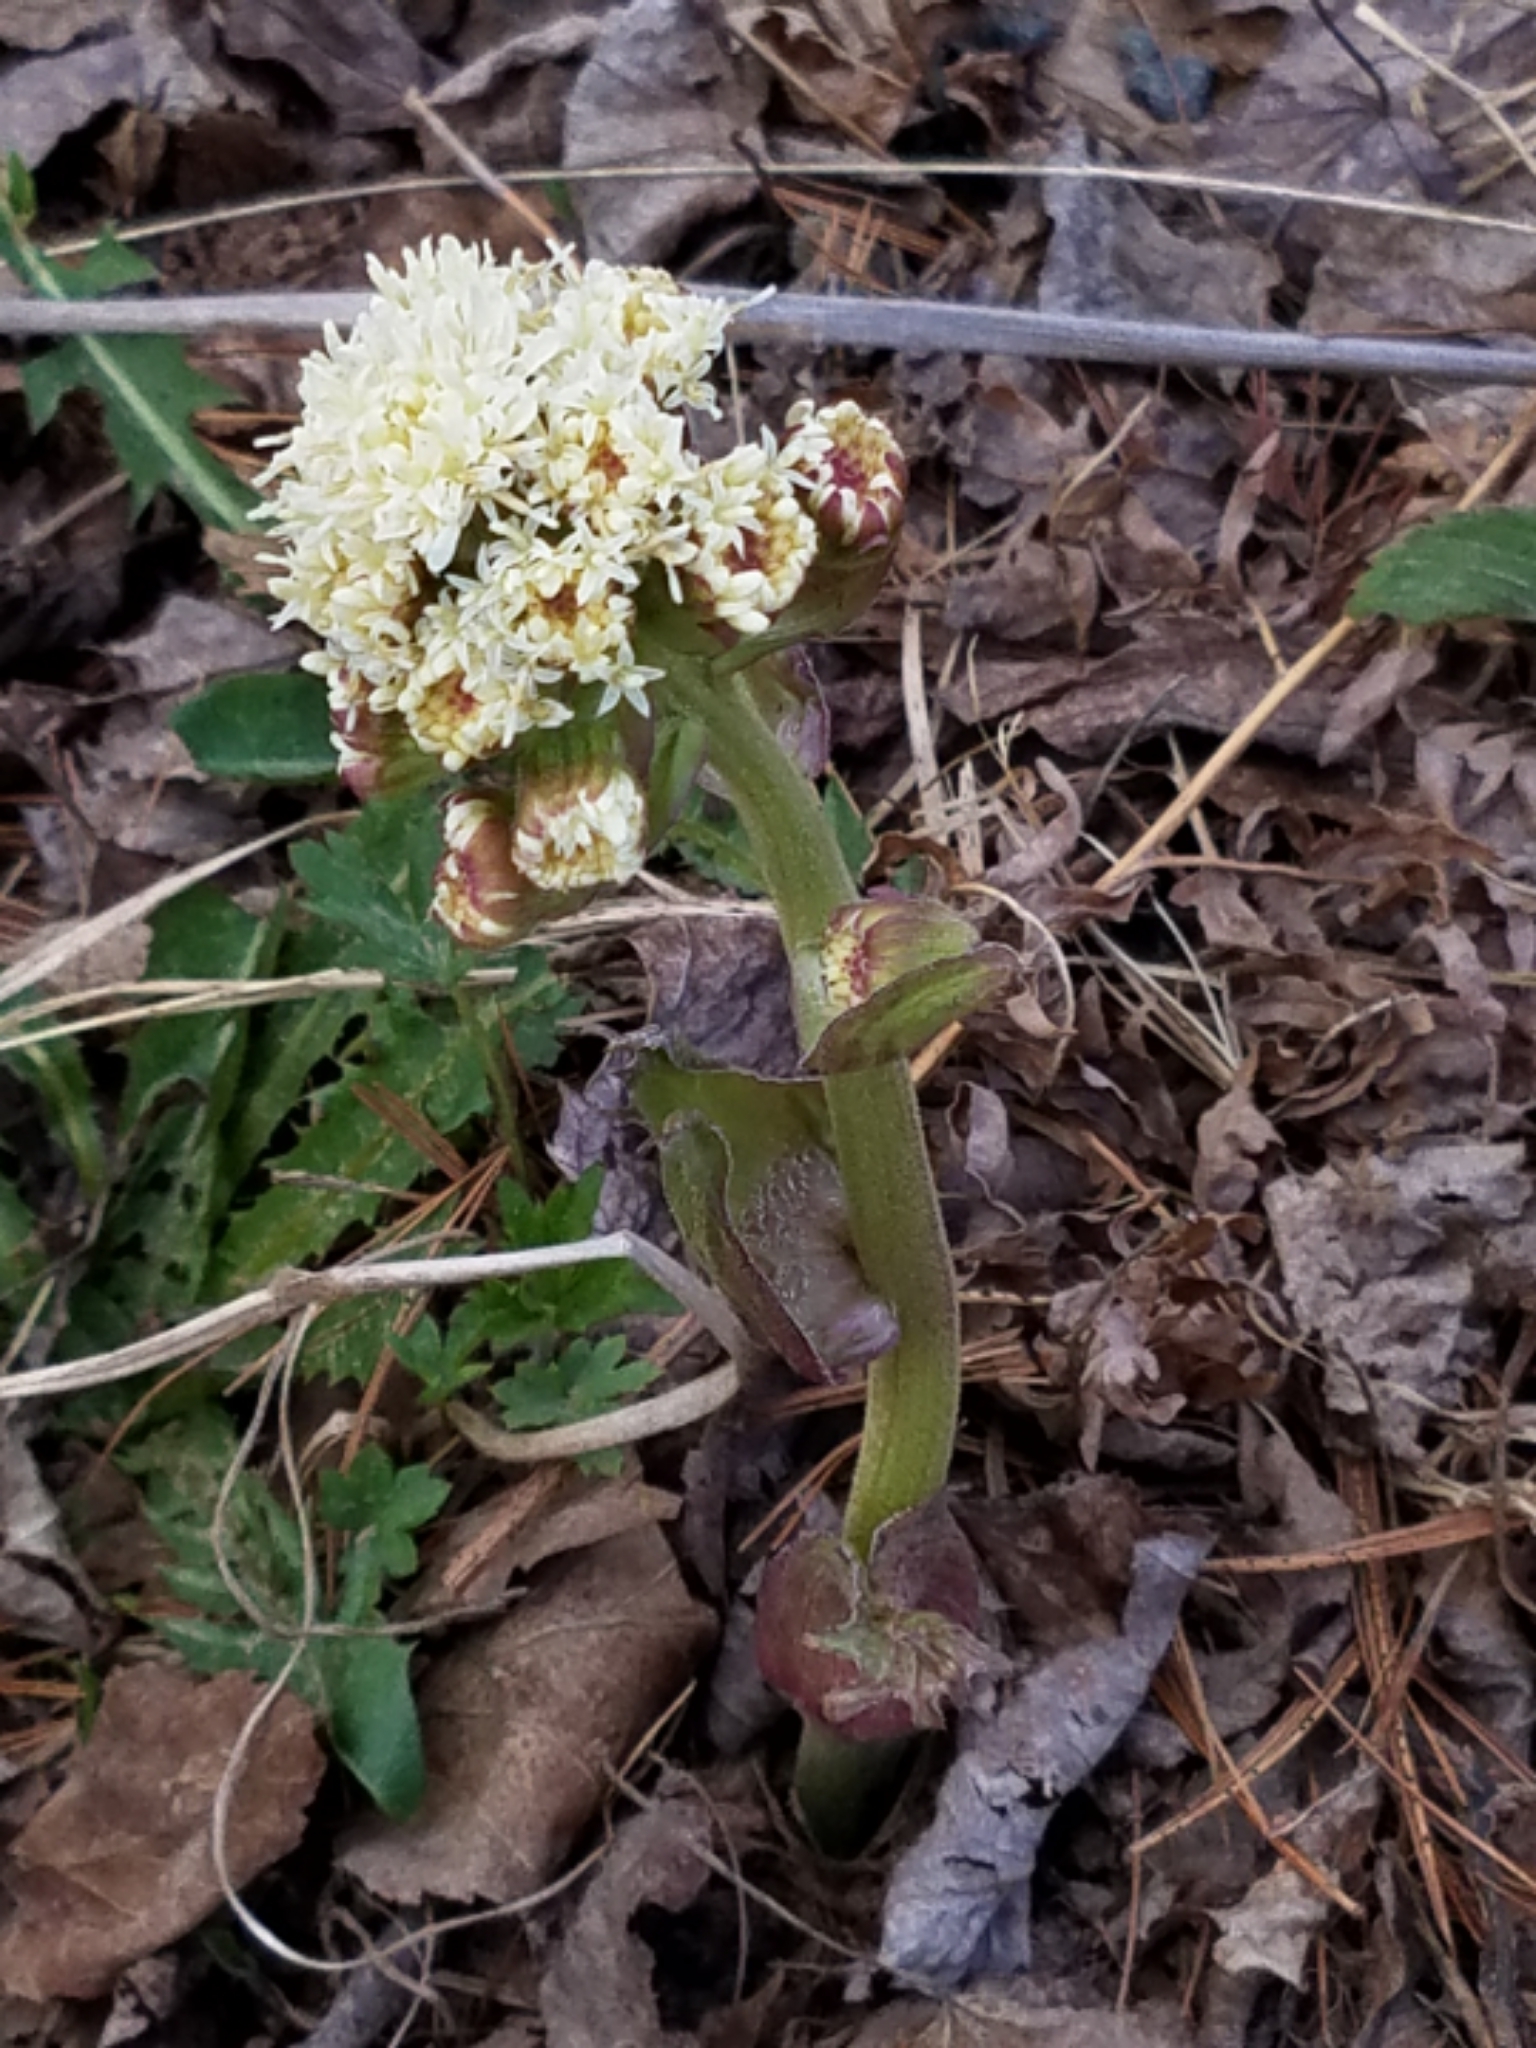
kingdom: Plantae
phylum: Tracheophyta
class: Magnoliopsida
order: Asterales
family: Asteraceae
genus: Petasites
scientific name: Petasites frigidus
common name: Arctic butterbur
